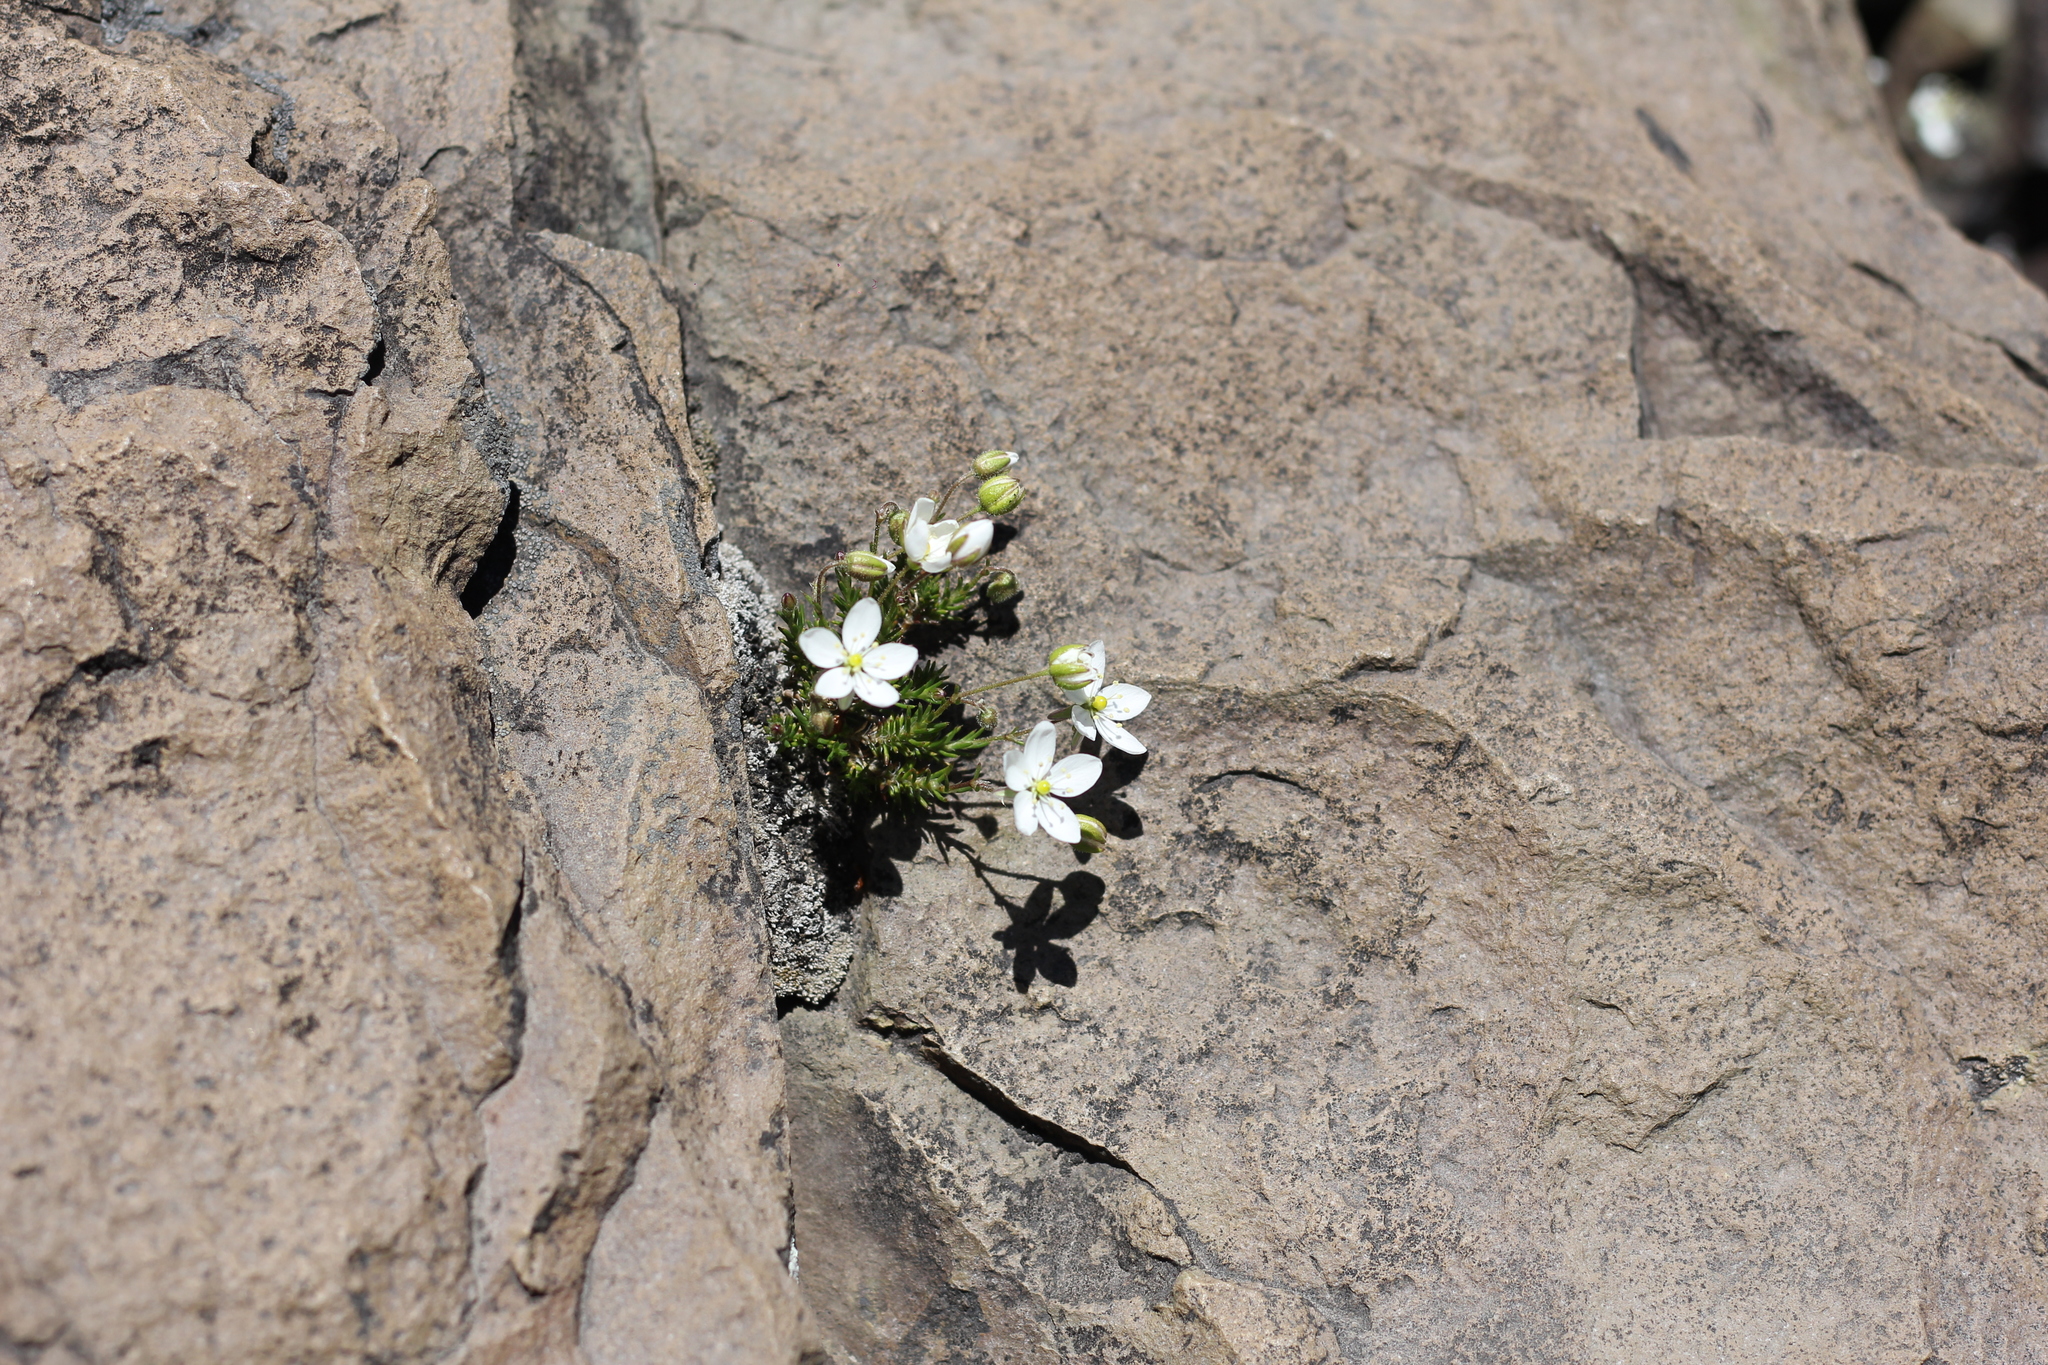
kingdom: Plantae
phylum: Tracheophyta
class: Magnoliopsida
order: Caryophyllales
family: Caryophyllaceae
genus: Spergularia
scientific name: Spergularia depauperata
